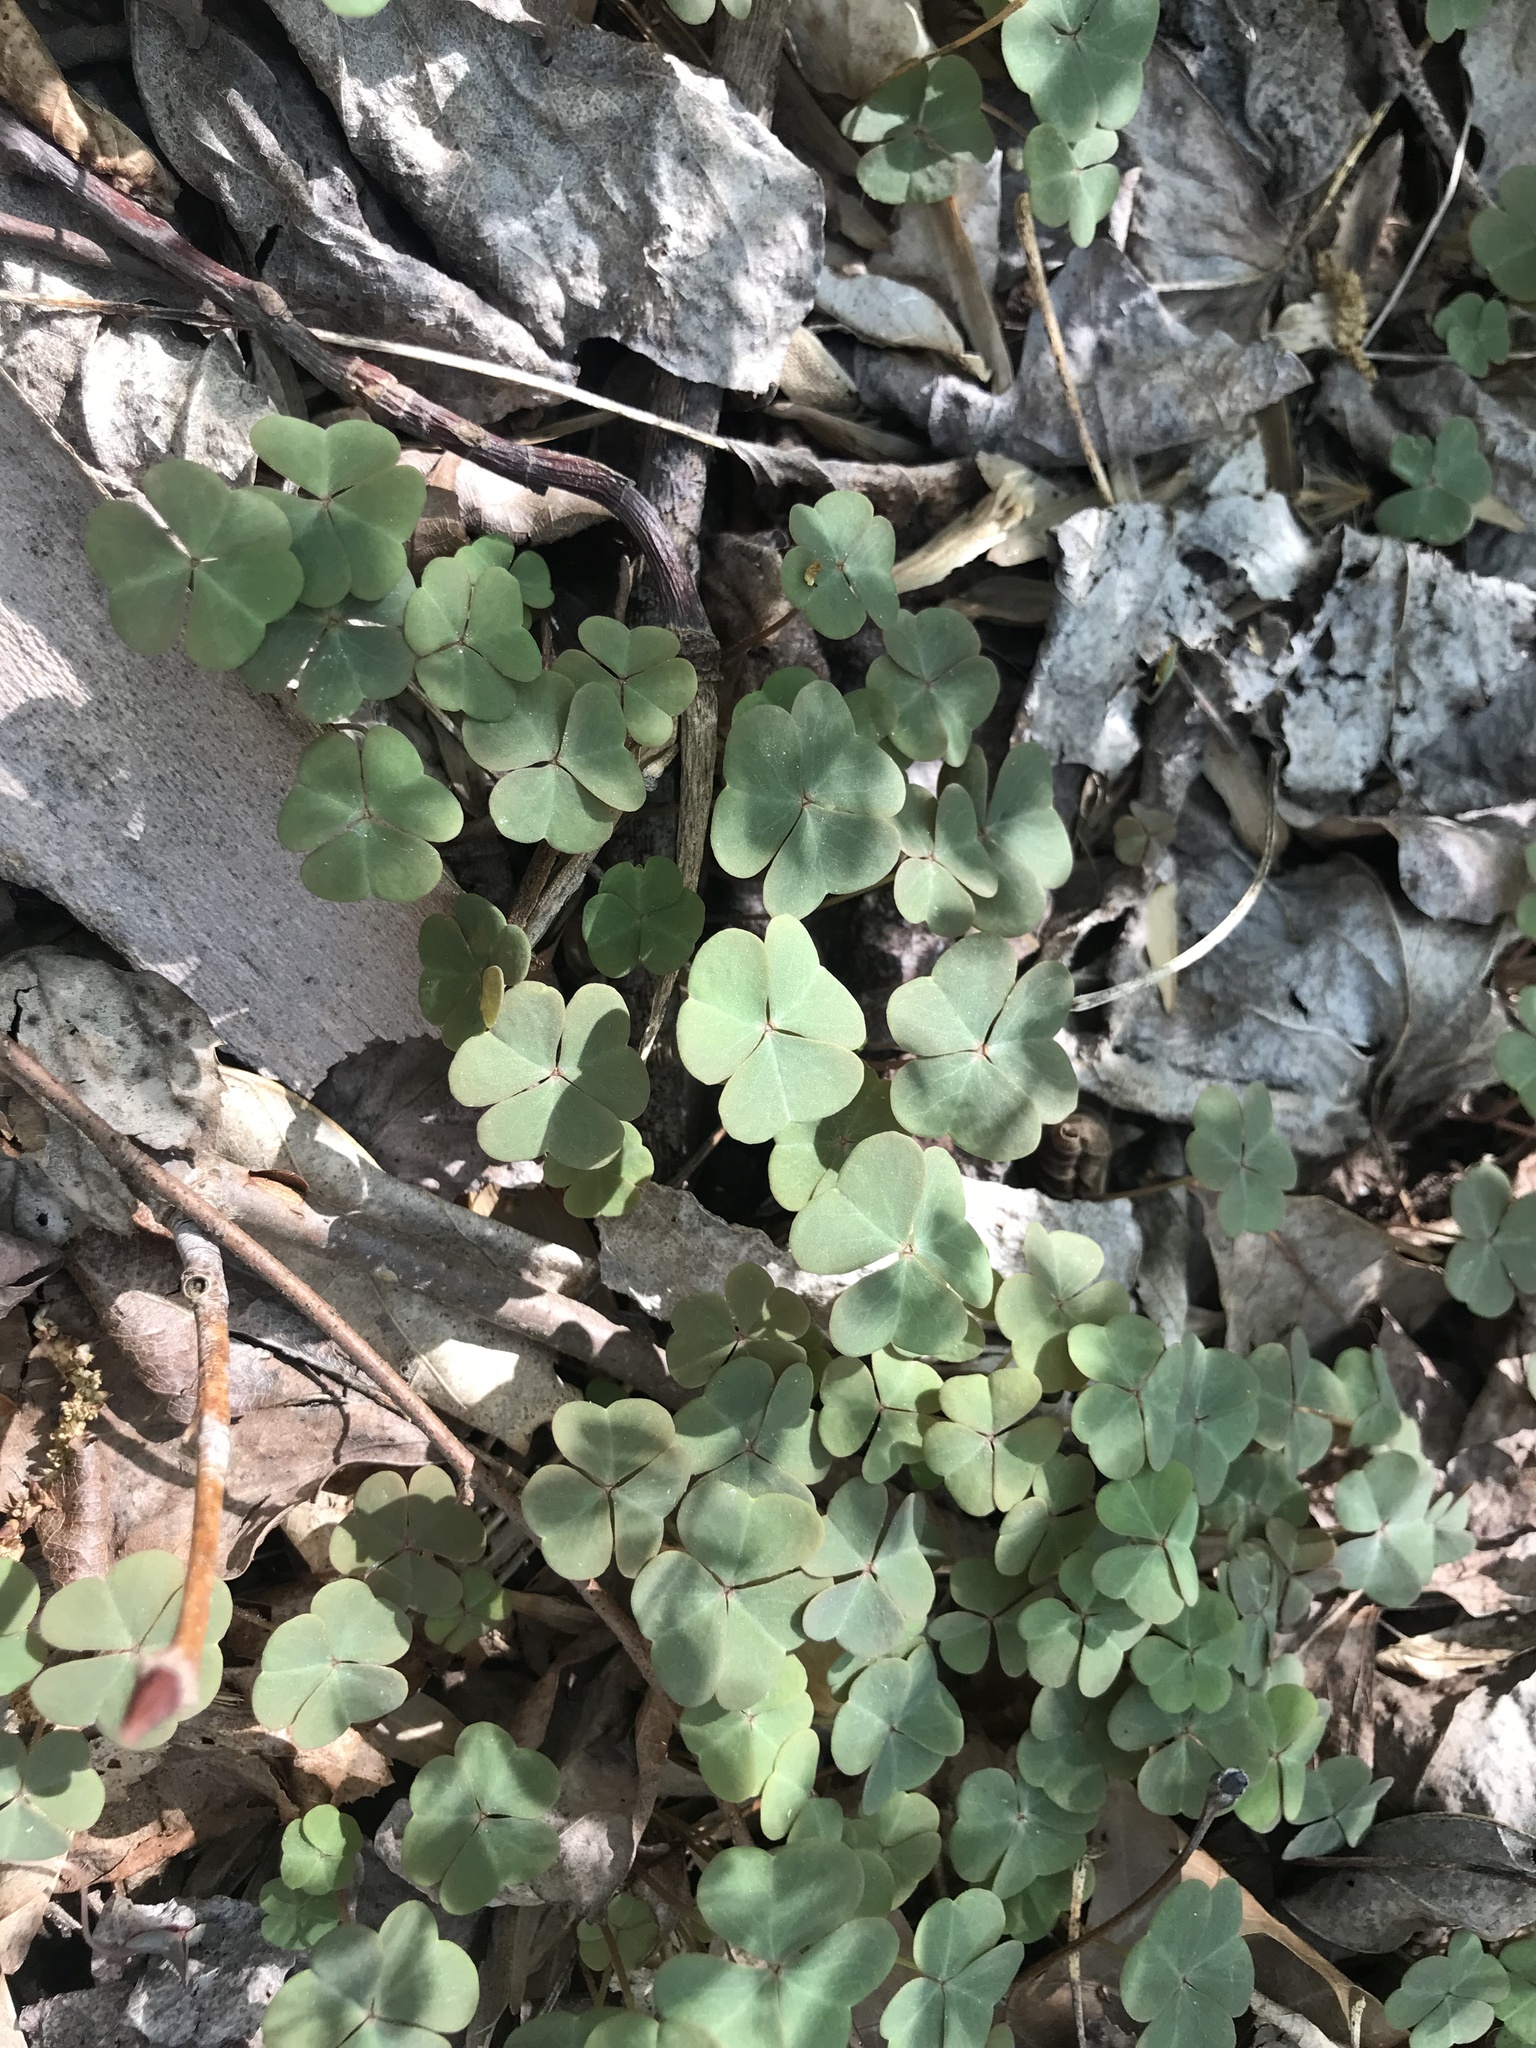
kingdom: Plantae
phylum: Tracheophyta
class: Magnoliopsida
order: Oxalidales
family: Oxalidaceae
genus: Oxalis
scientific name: Oxalis violacea
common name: Violet wood-sorrel
